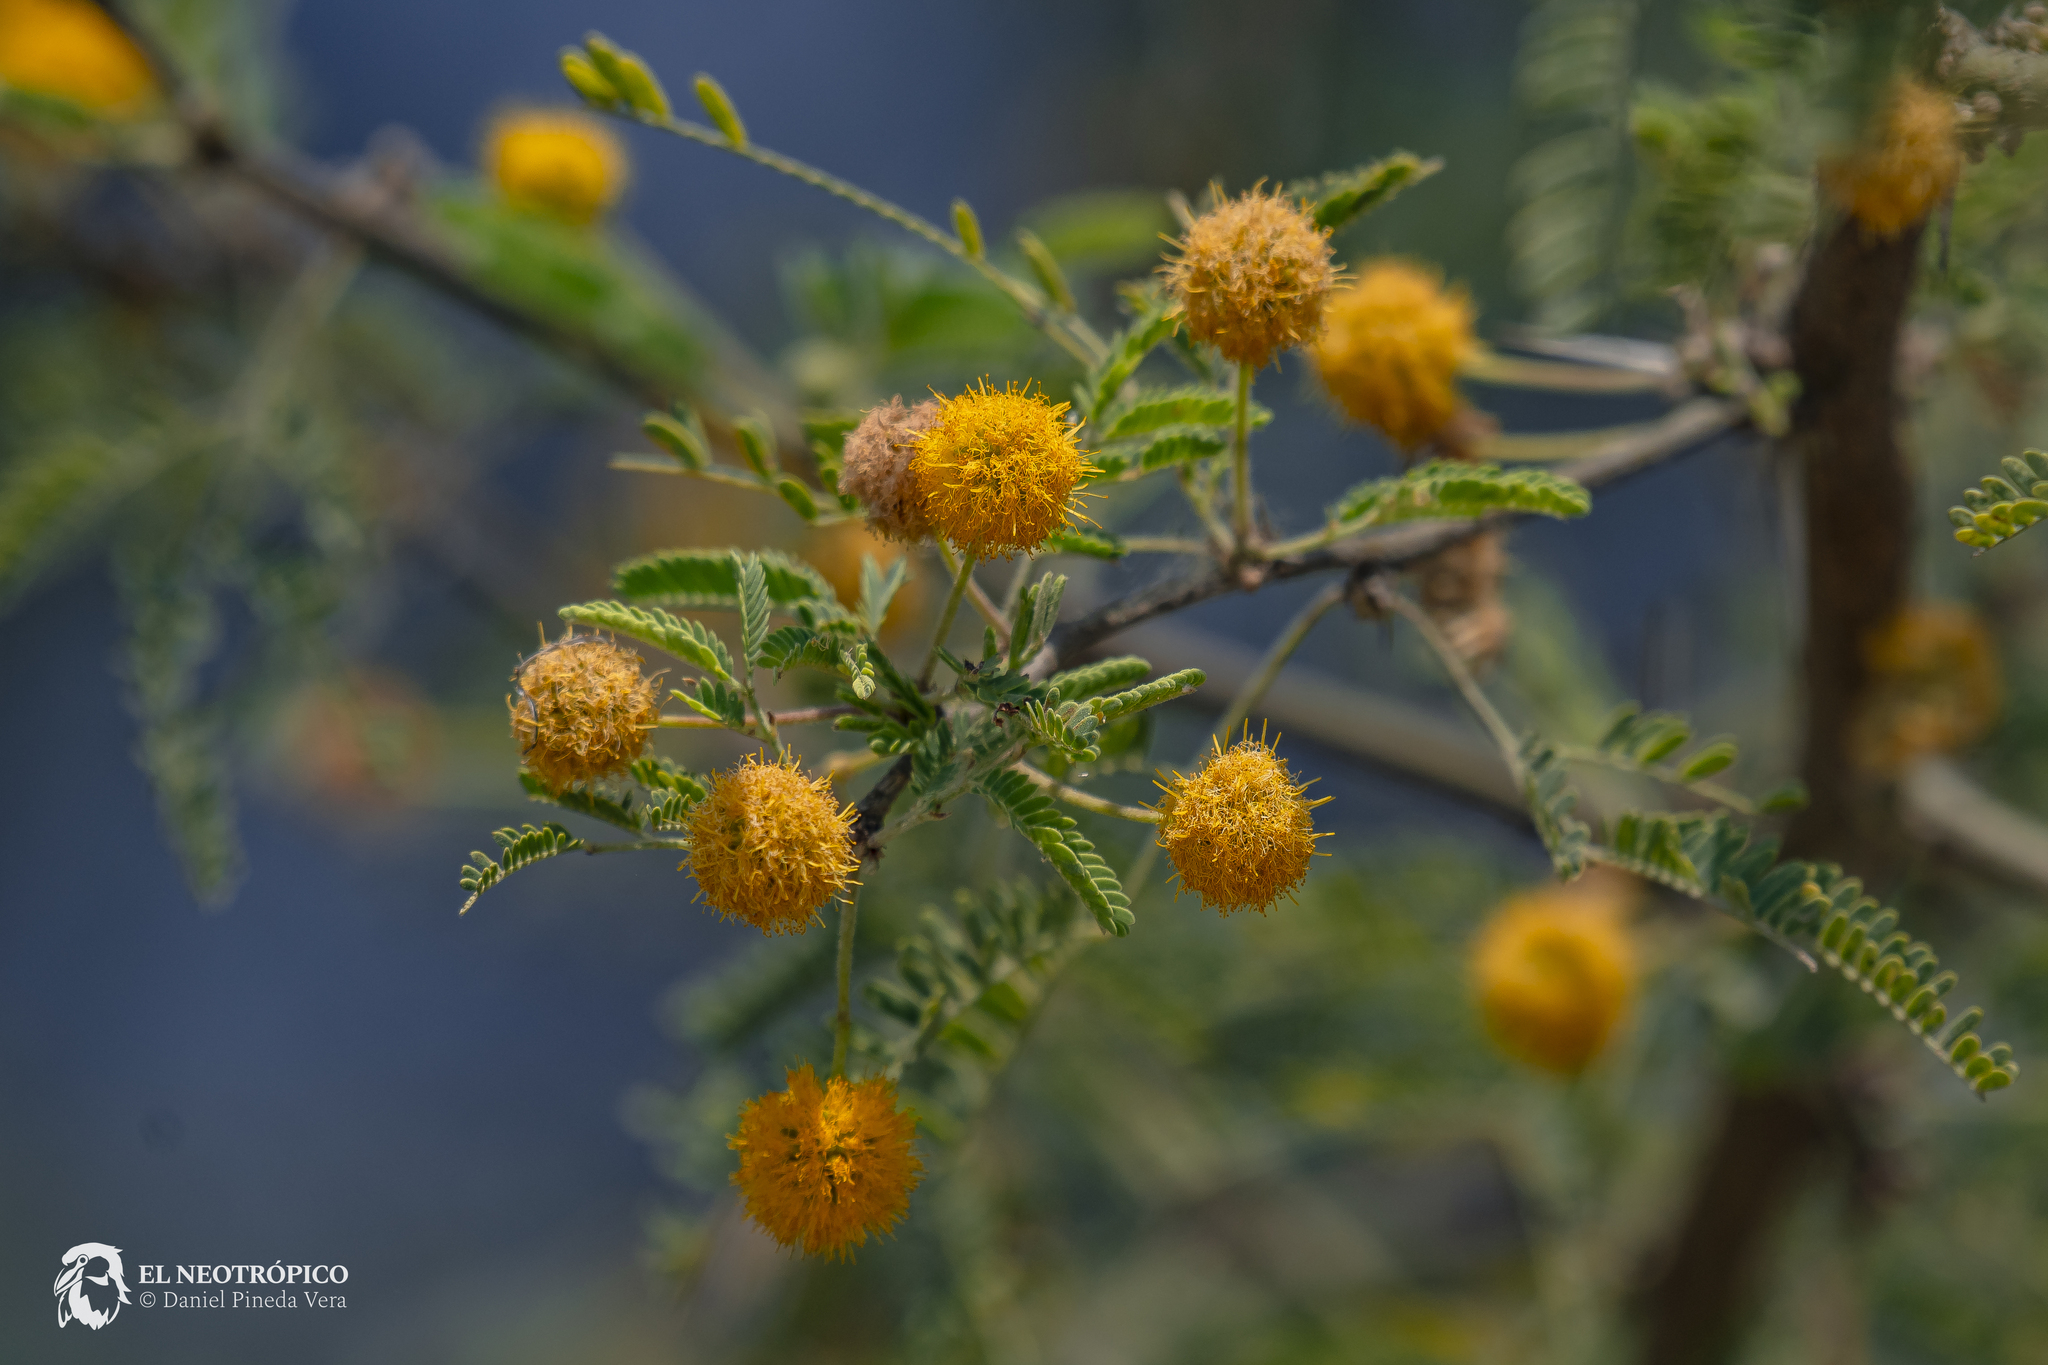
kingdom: Plantae
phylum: Tracheophyta
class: Magnoliopsida
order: Fabales
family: Fabaceae
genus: Vachellia
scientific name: Vachellia farnesiana
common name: Sweet acacia
